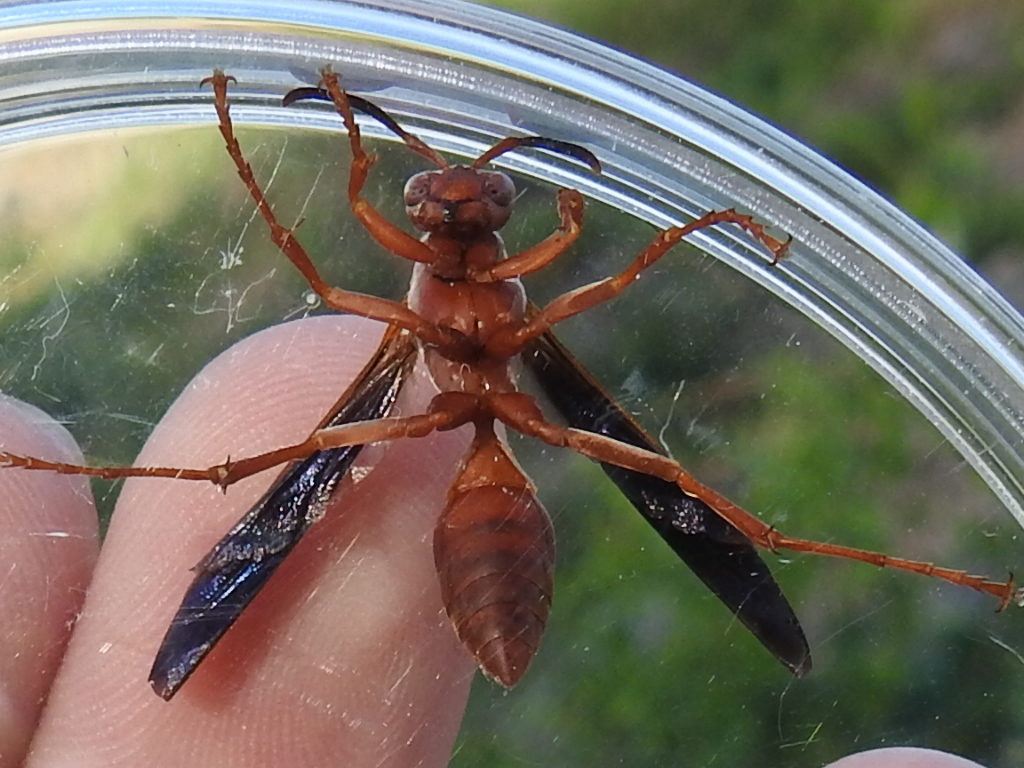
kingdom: Animalia
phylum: Arthropoda
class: Insecta
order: Hymenoptera
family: Eumenidae
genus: Polistes
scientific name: Polistes carolina
